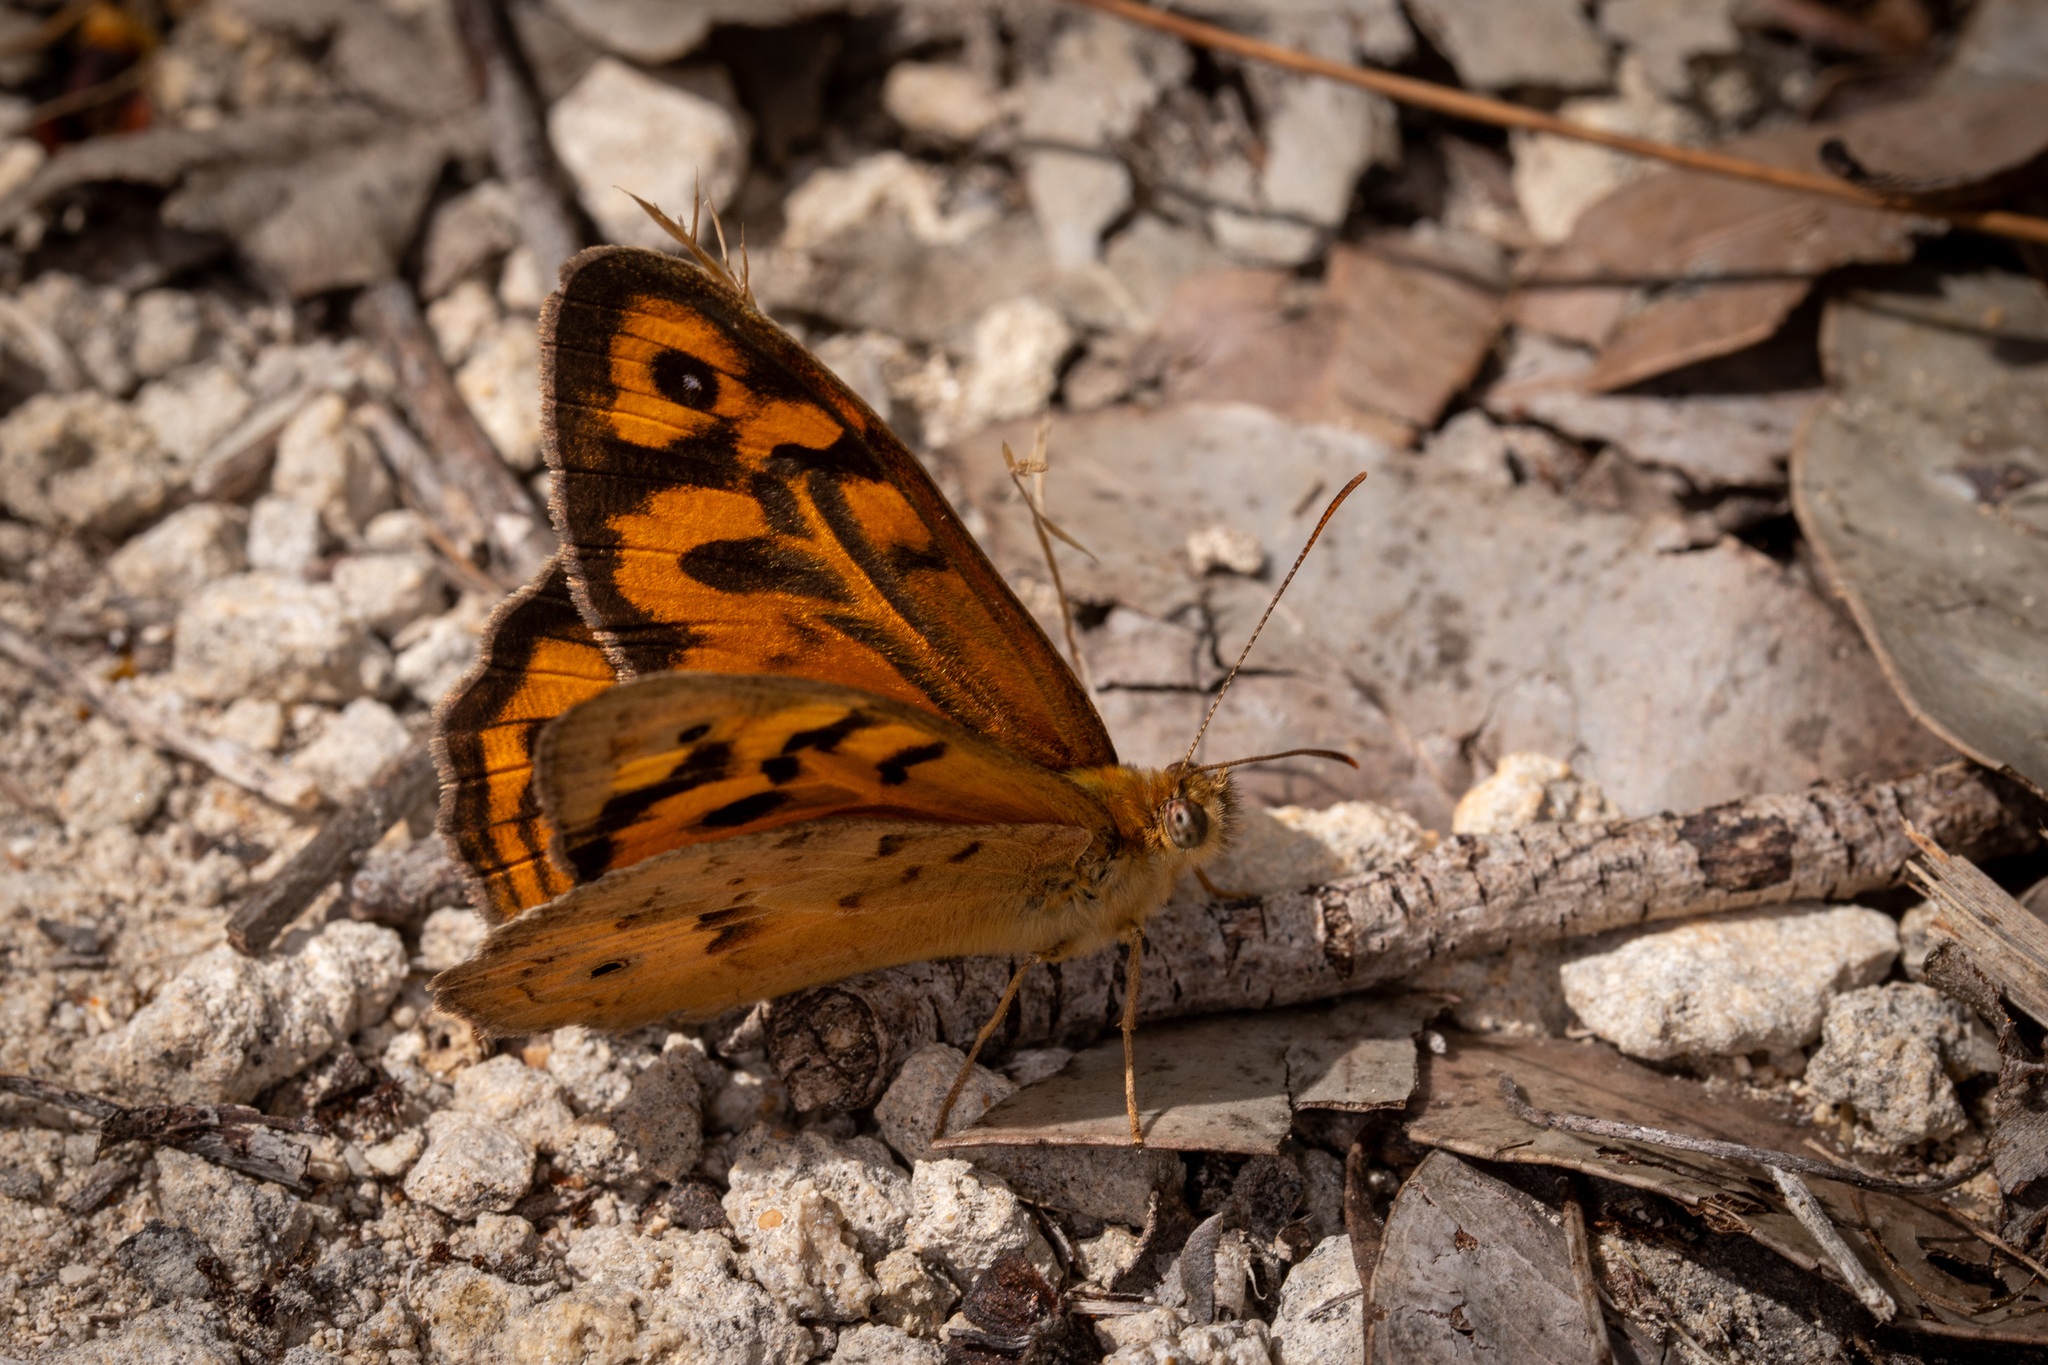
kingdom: Animalia
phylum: Arthropoda
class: Insecta
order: Lepidoptera
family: Nymphalidae
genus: Heteronympha
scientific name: Heteronympha merope
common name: Common brown
